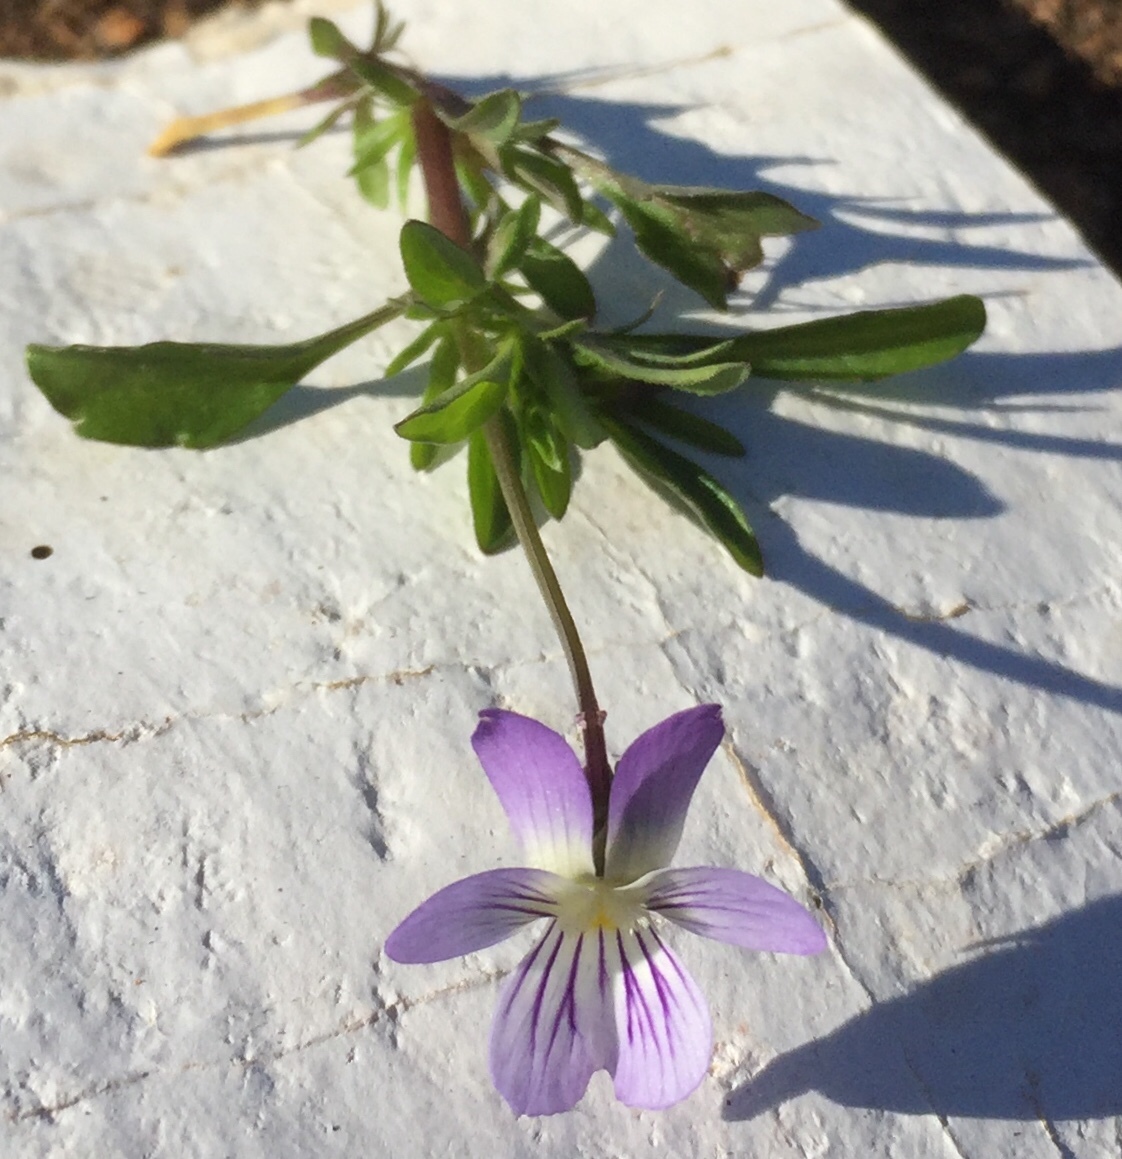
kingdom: Plantae
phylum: Tracheophyta
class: Magnoliopsida
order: Malpighiales
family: Violaceae
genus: Viola
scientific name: Viola rafinesquei
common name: American field pansy
